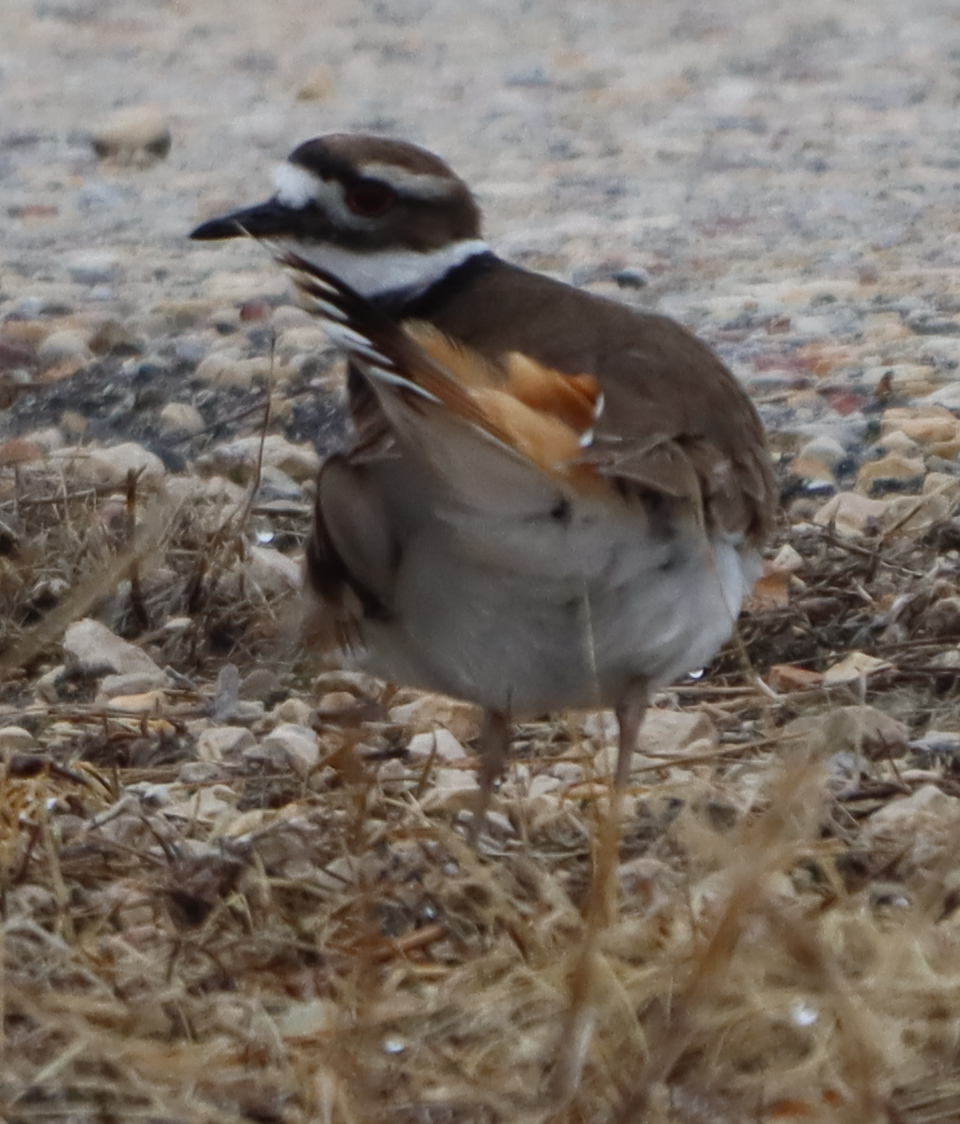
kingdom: Animalia
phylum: Chordata
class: Aves
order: Charadriiformes
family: Charadriidae
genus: Charadrius
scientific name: Charadrius vociferus
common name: Killdeer
